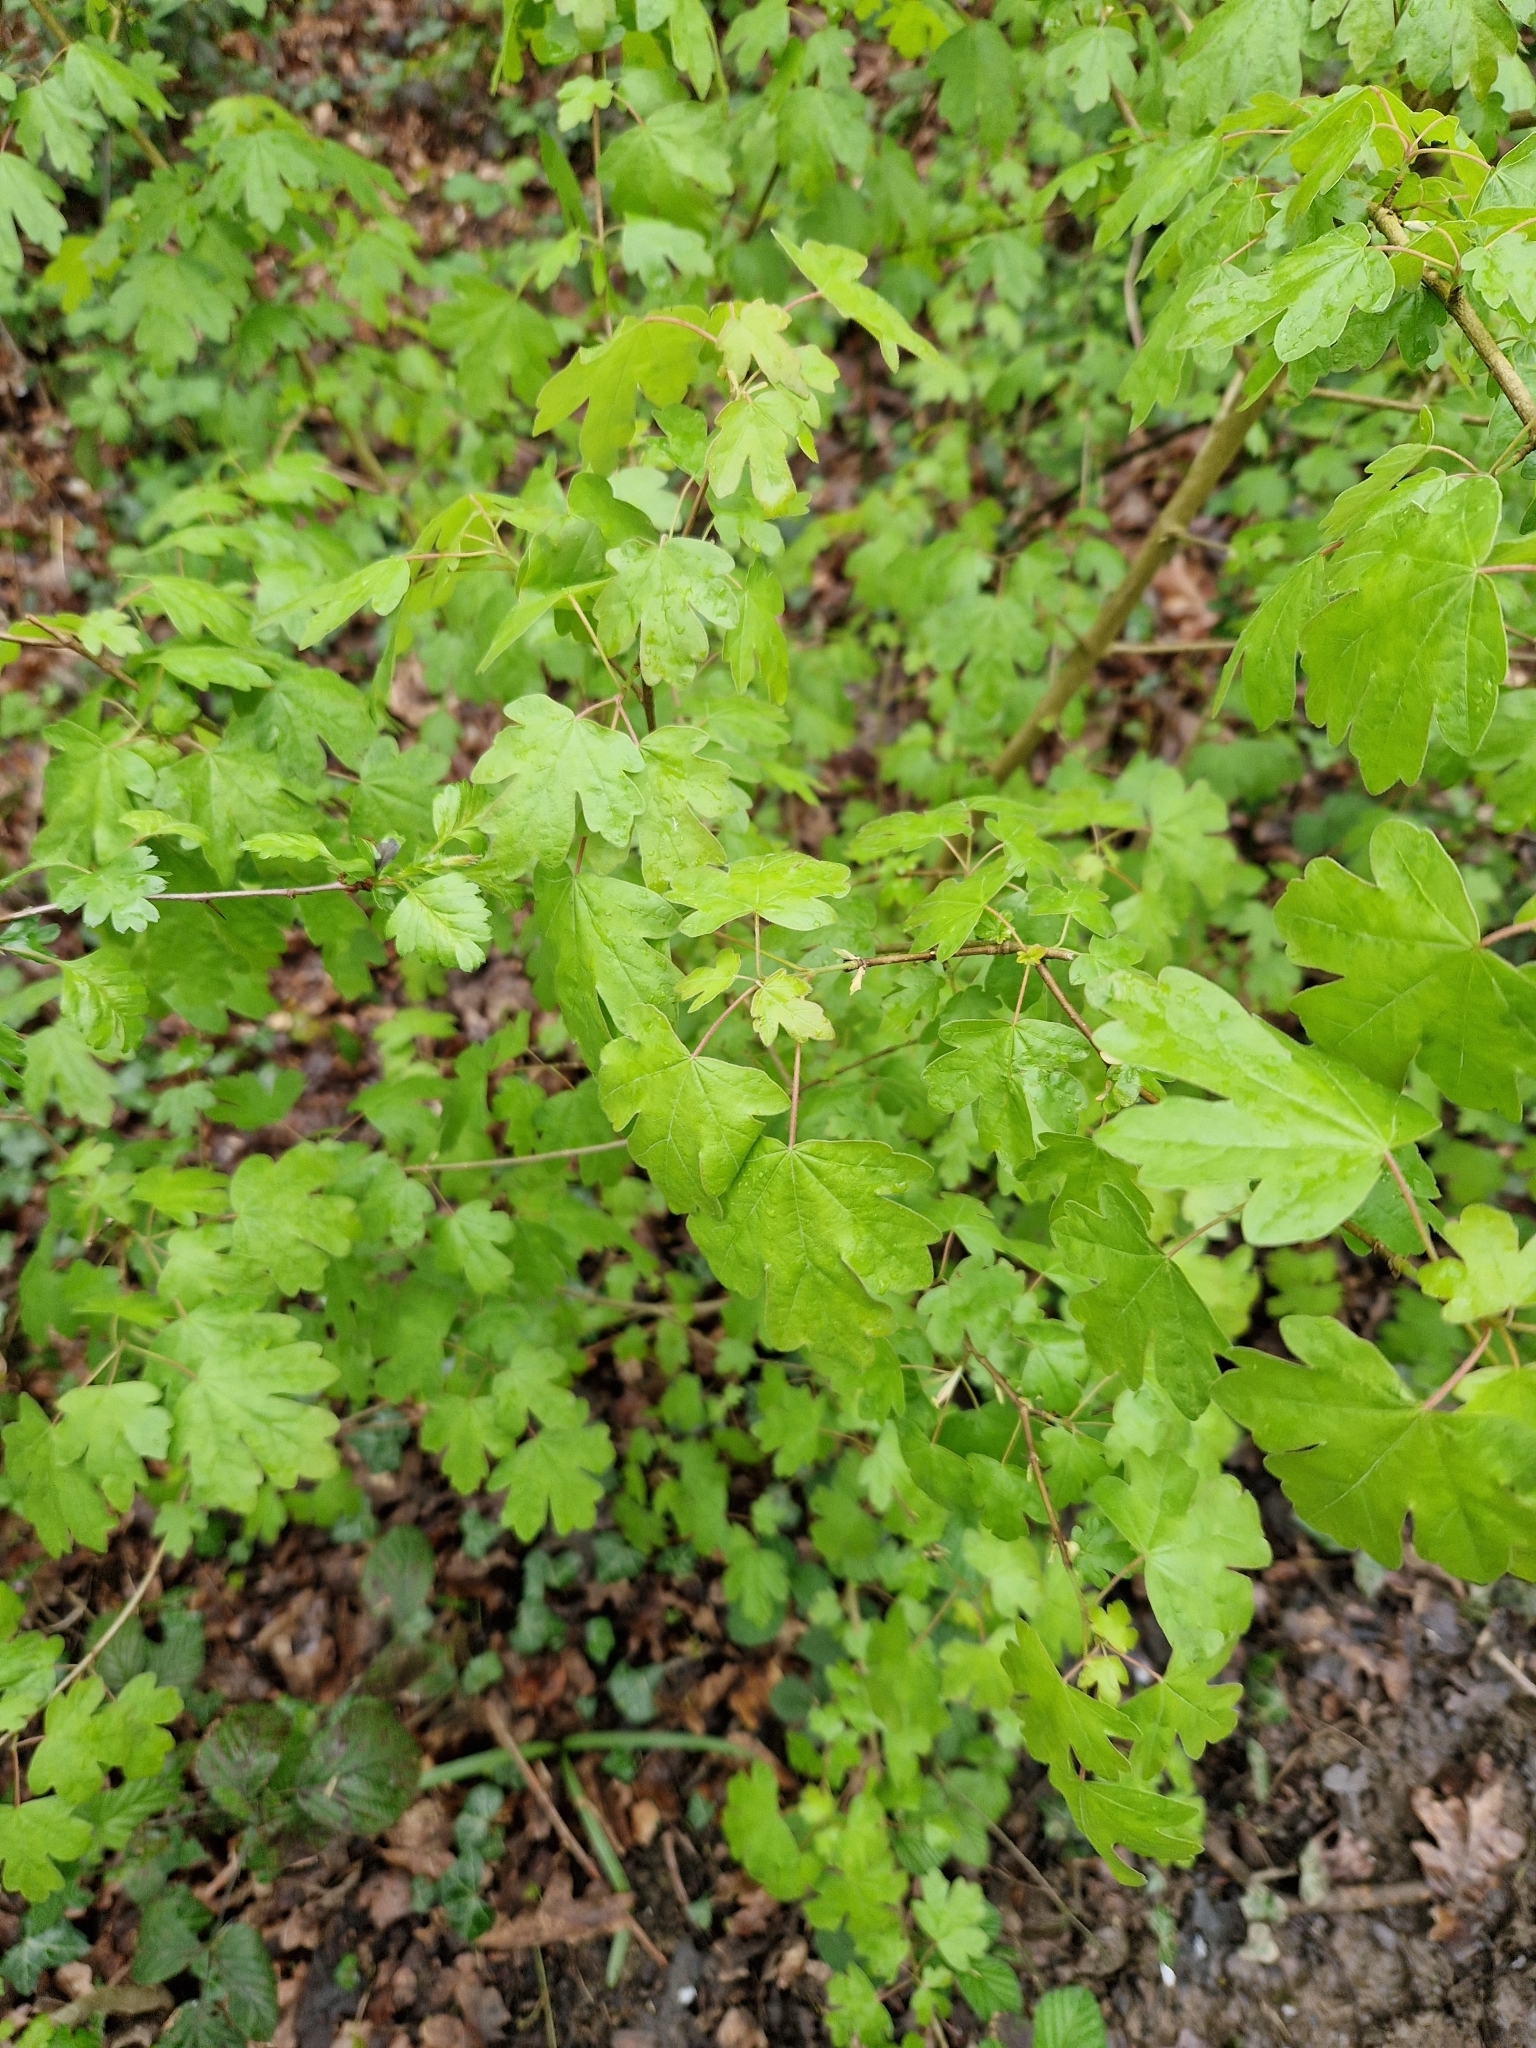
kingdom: Plantae
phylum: Tracheophyta
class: Magnoliopsida
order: Sapindales
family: Sapindaceae
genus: Acer
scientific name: Acer campestre
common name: Field maple
